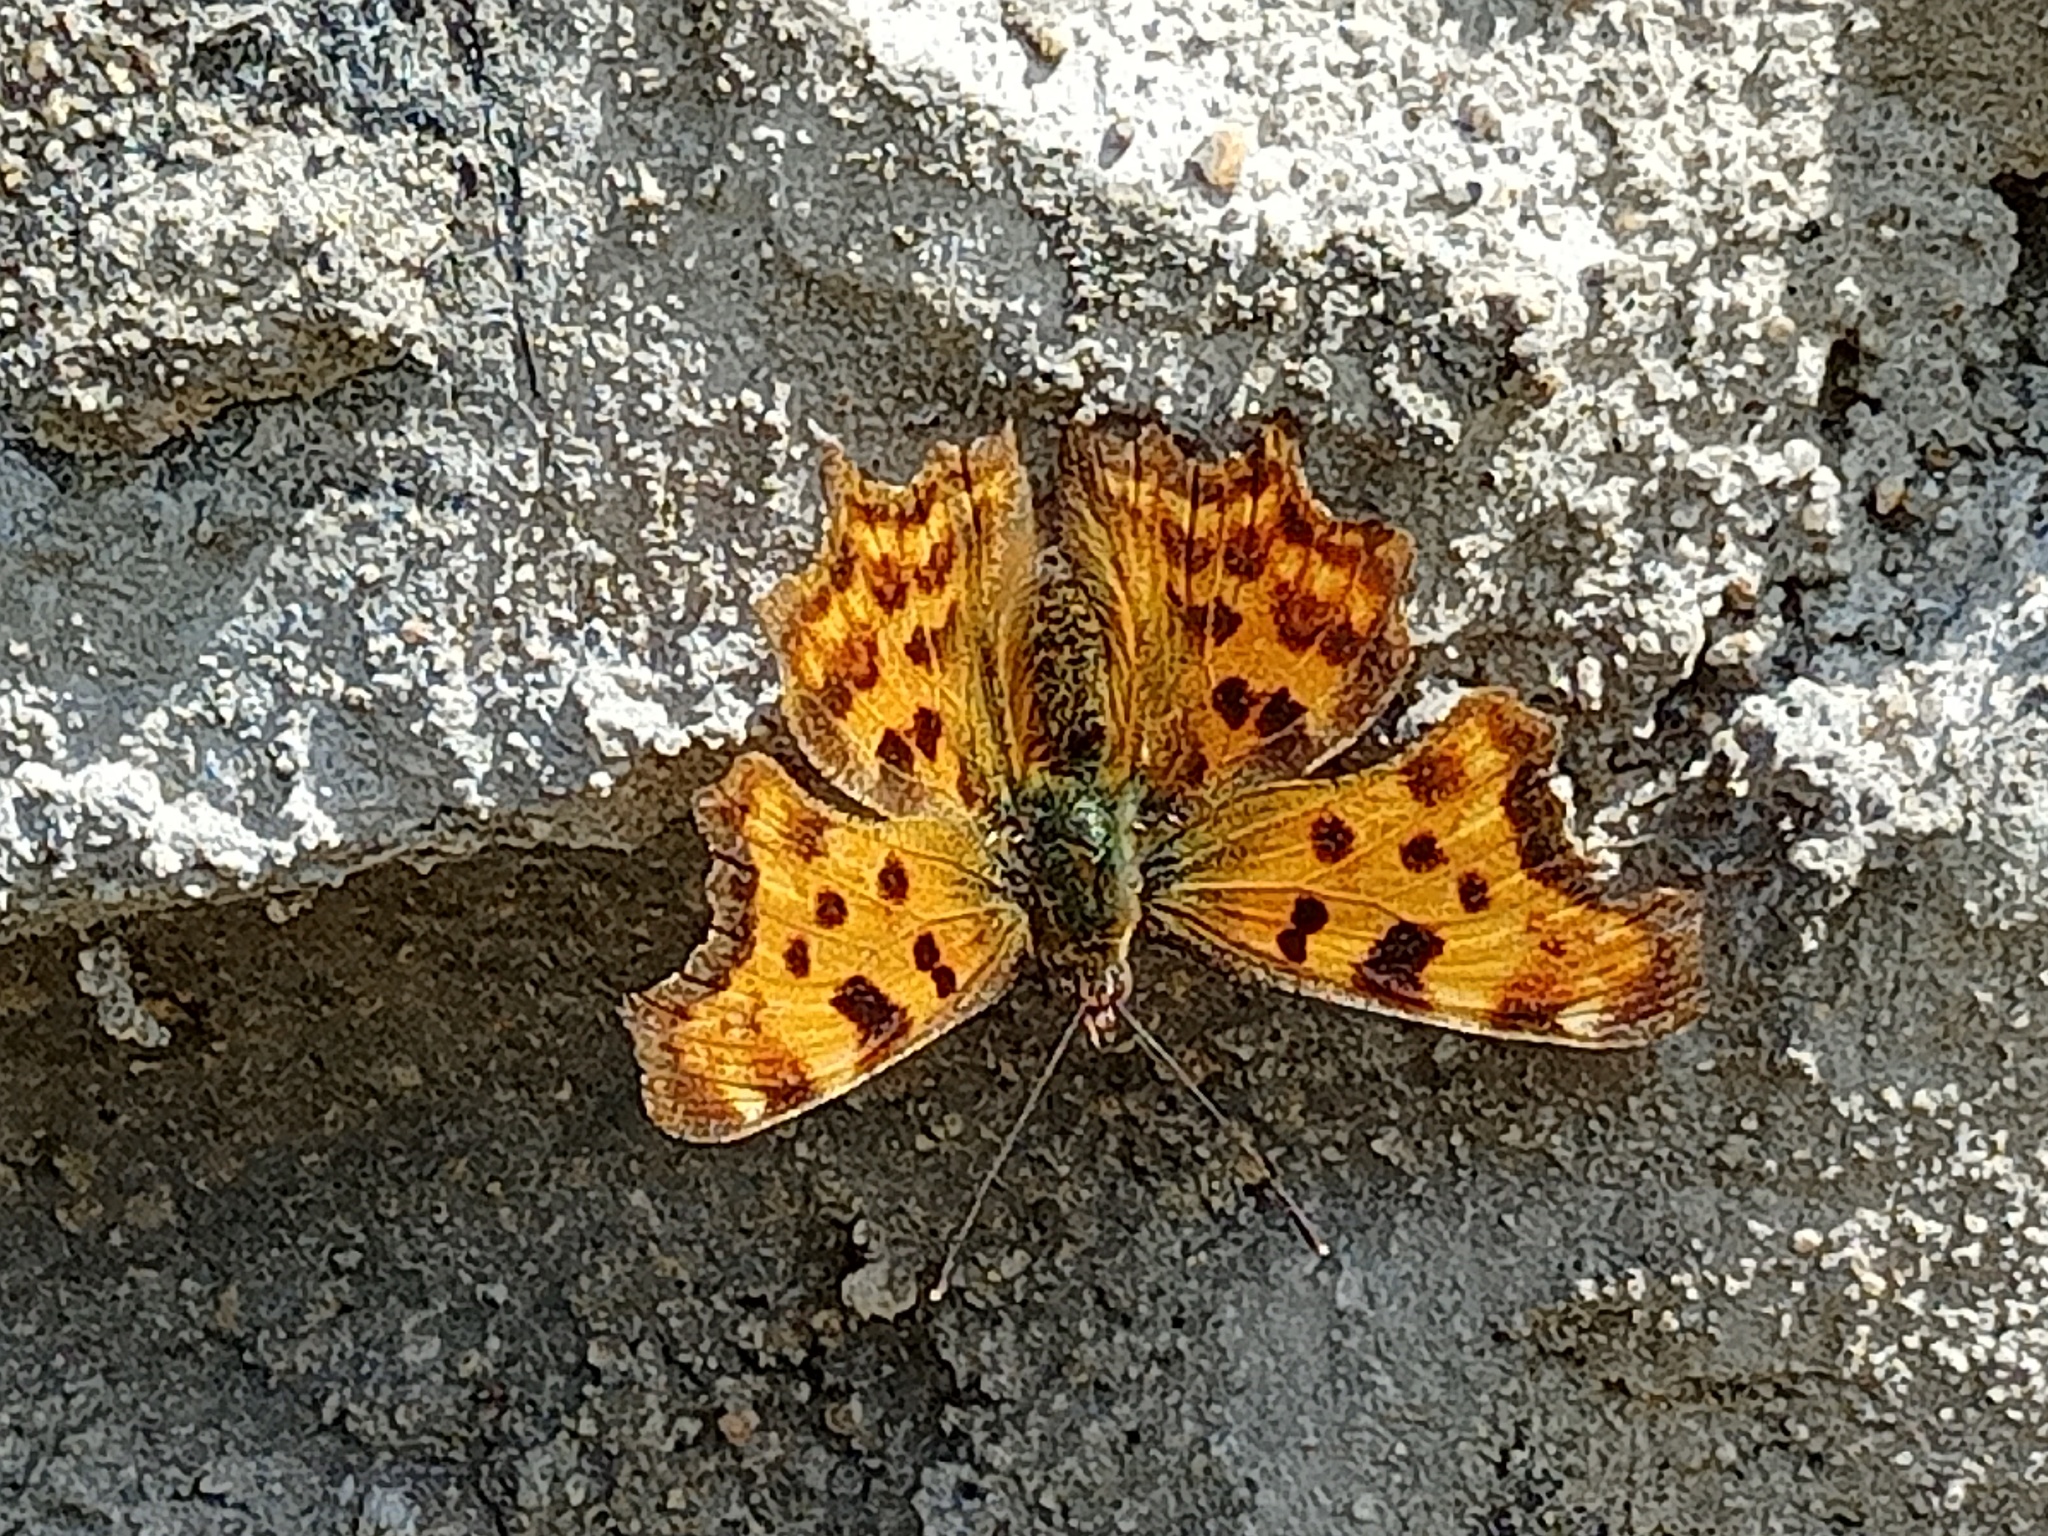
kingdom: Animalia
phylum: Arthropoda
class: Insecta
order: Lepidoptera
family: Nymphalidae
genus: Polygonia
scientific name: Polygonia c-album
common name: Comma
